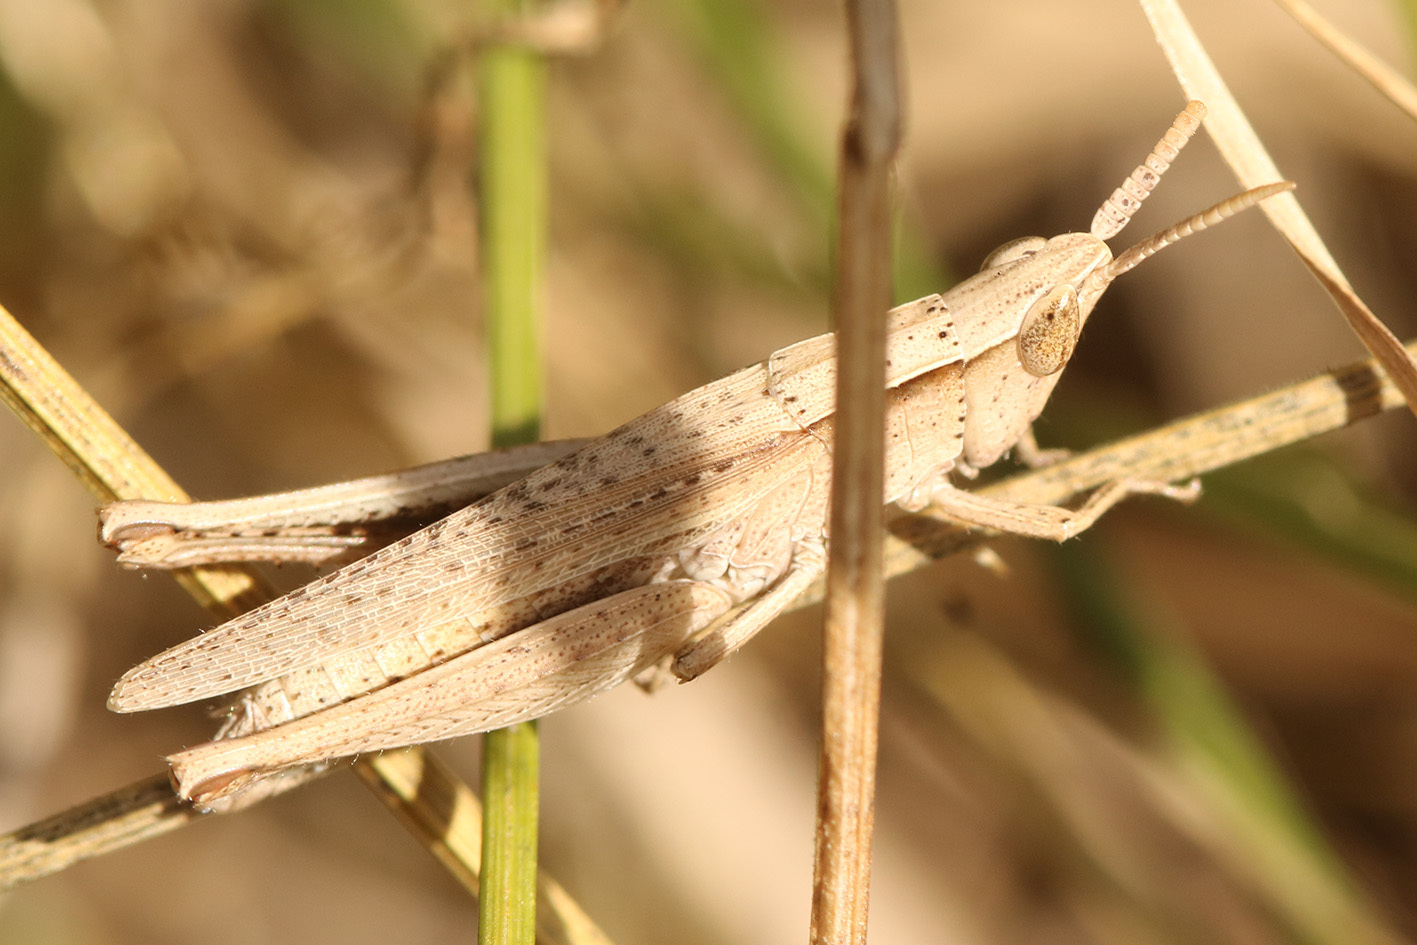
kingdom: Animalia
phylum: Arthropoda
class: Insecta
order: Orthoptera
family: Acrididae
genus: Laplatacris
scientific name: Laplatacris dispar
